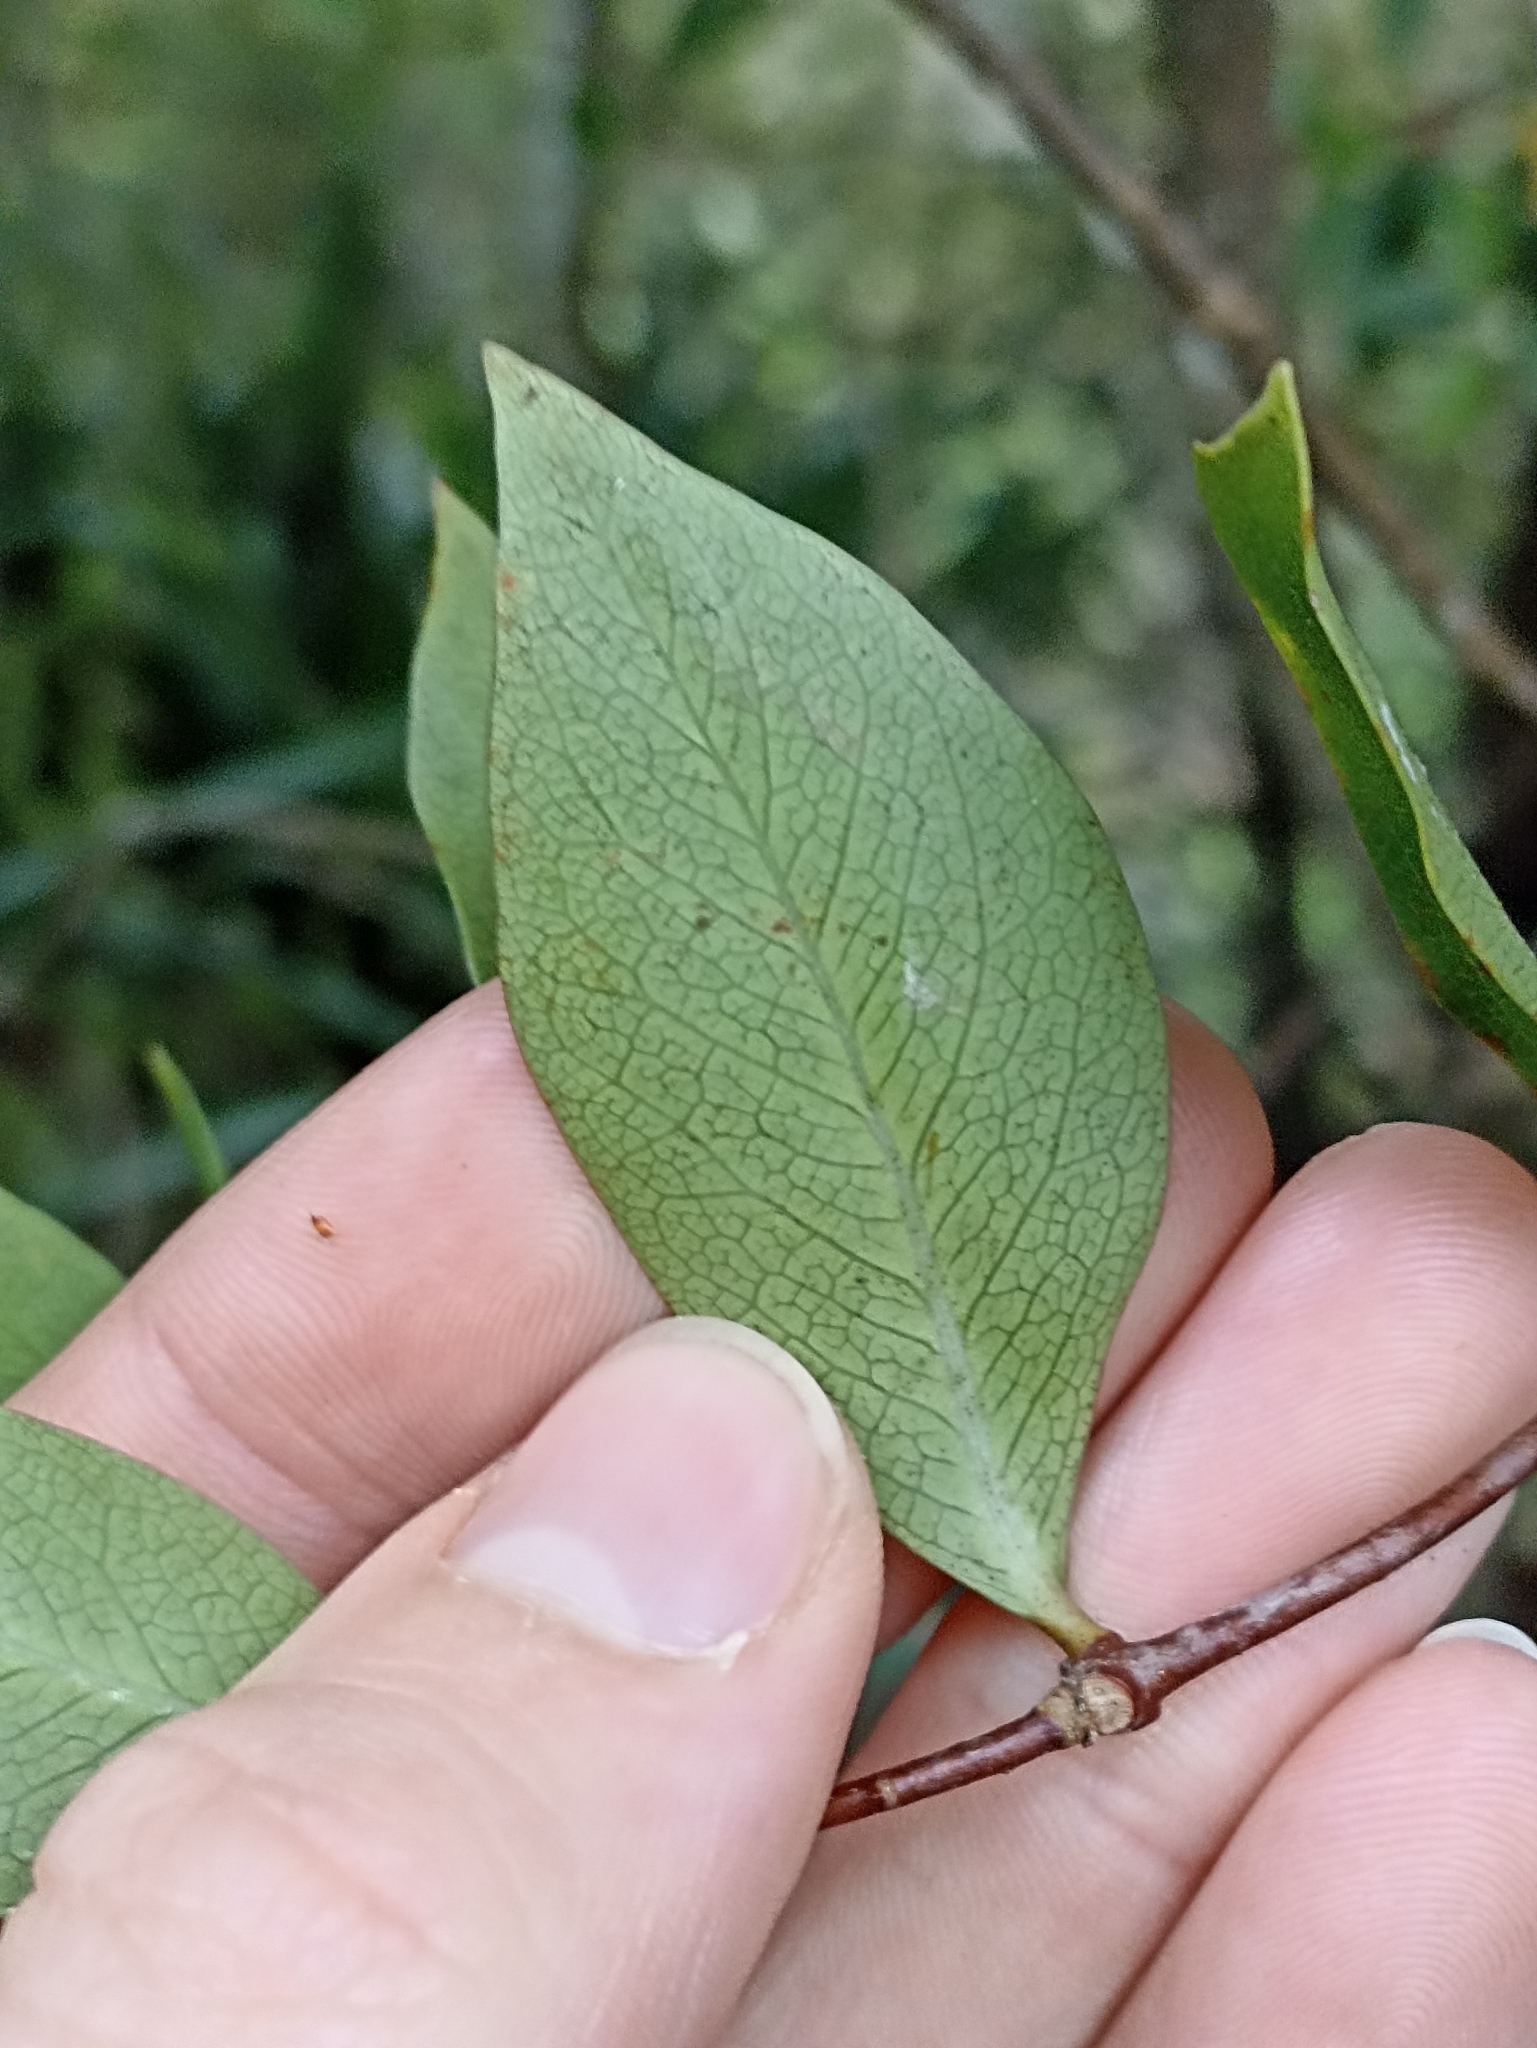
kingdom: Plantae
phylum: Tracheophyta
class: Magnoliopsida
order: Apiales
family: Pittosporaceae
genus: Pittosporum
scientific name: Pittosporum cornifolium
